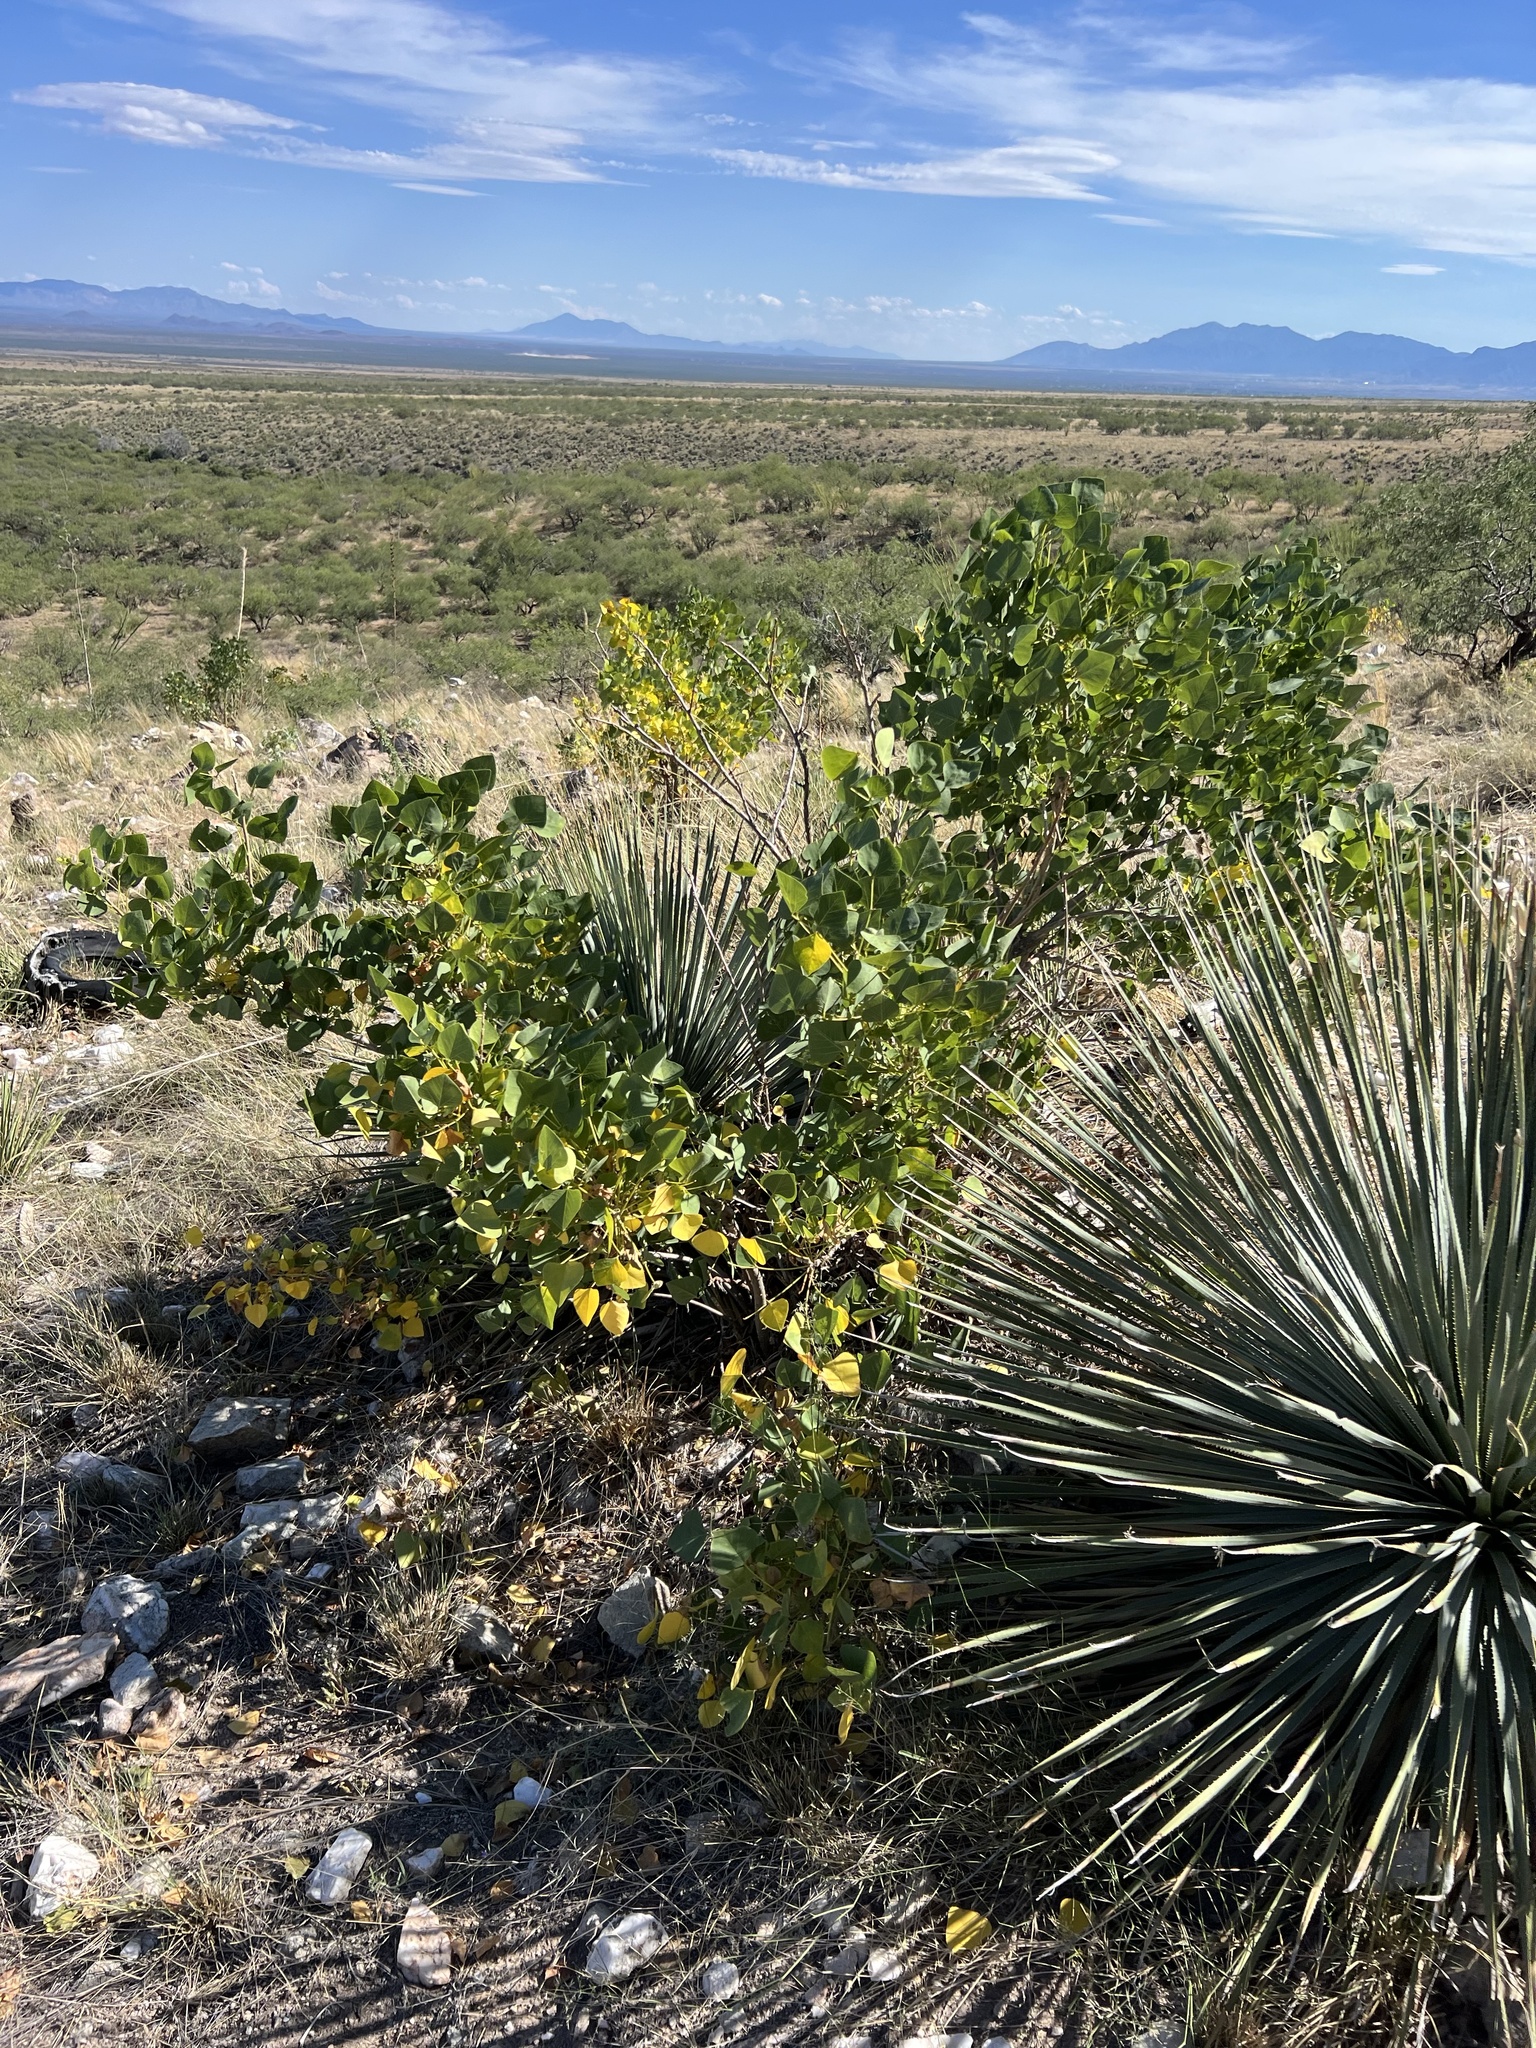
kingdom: Plantae
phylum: Tracheophyta
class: Magnoliopsida
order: Fabales
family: Fabaceae
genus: Erythrina
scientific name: Erythrina flabelliformis
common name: Chilicote
